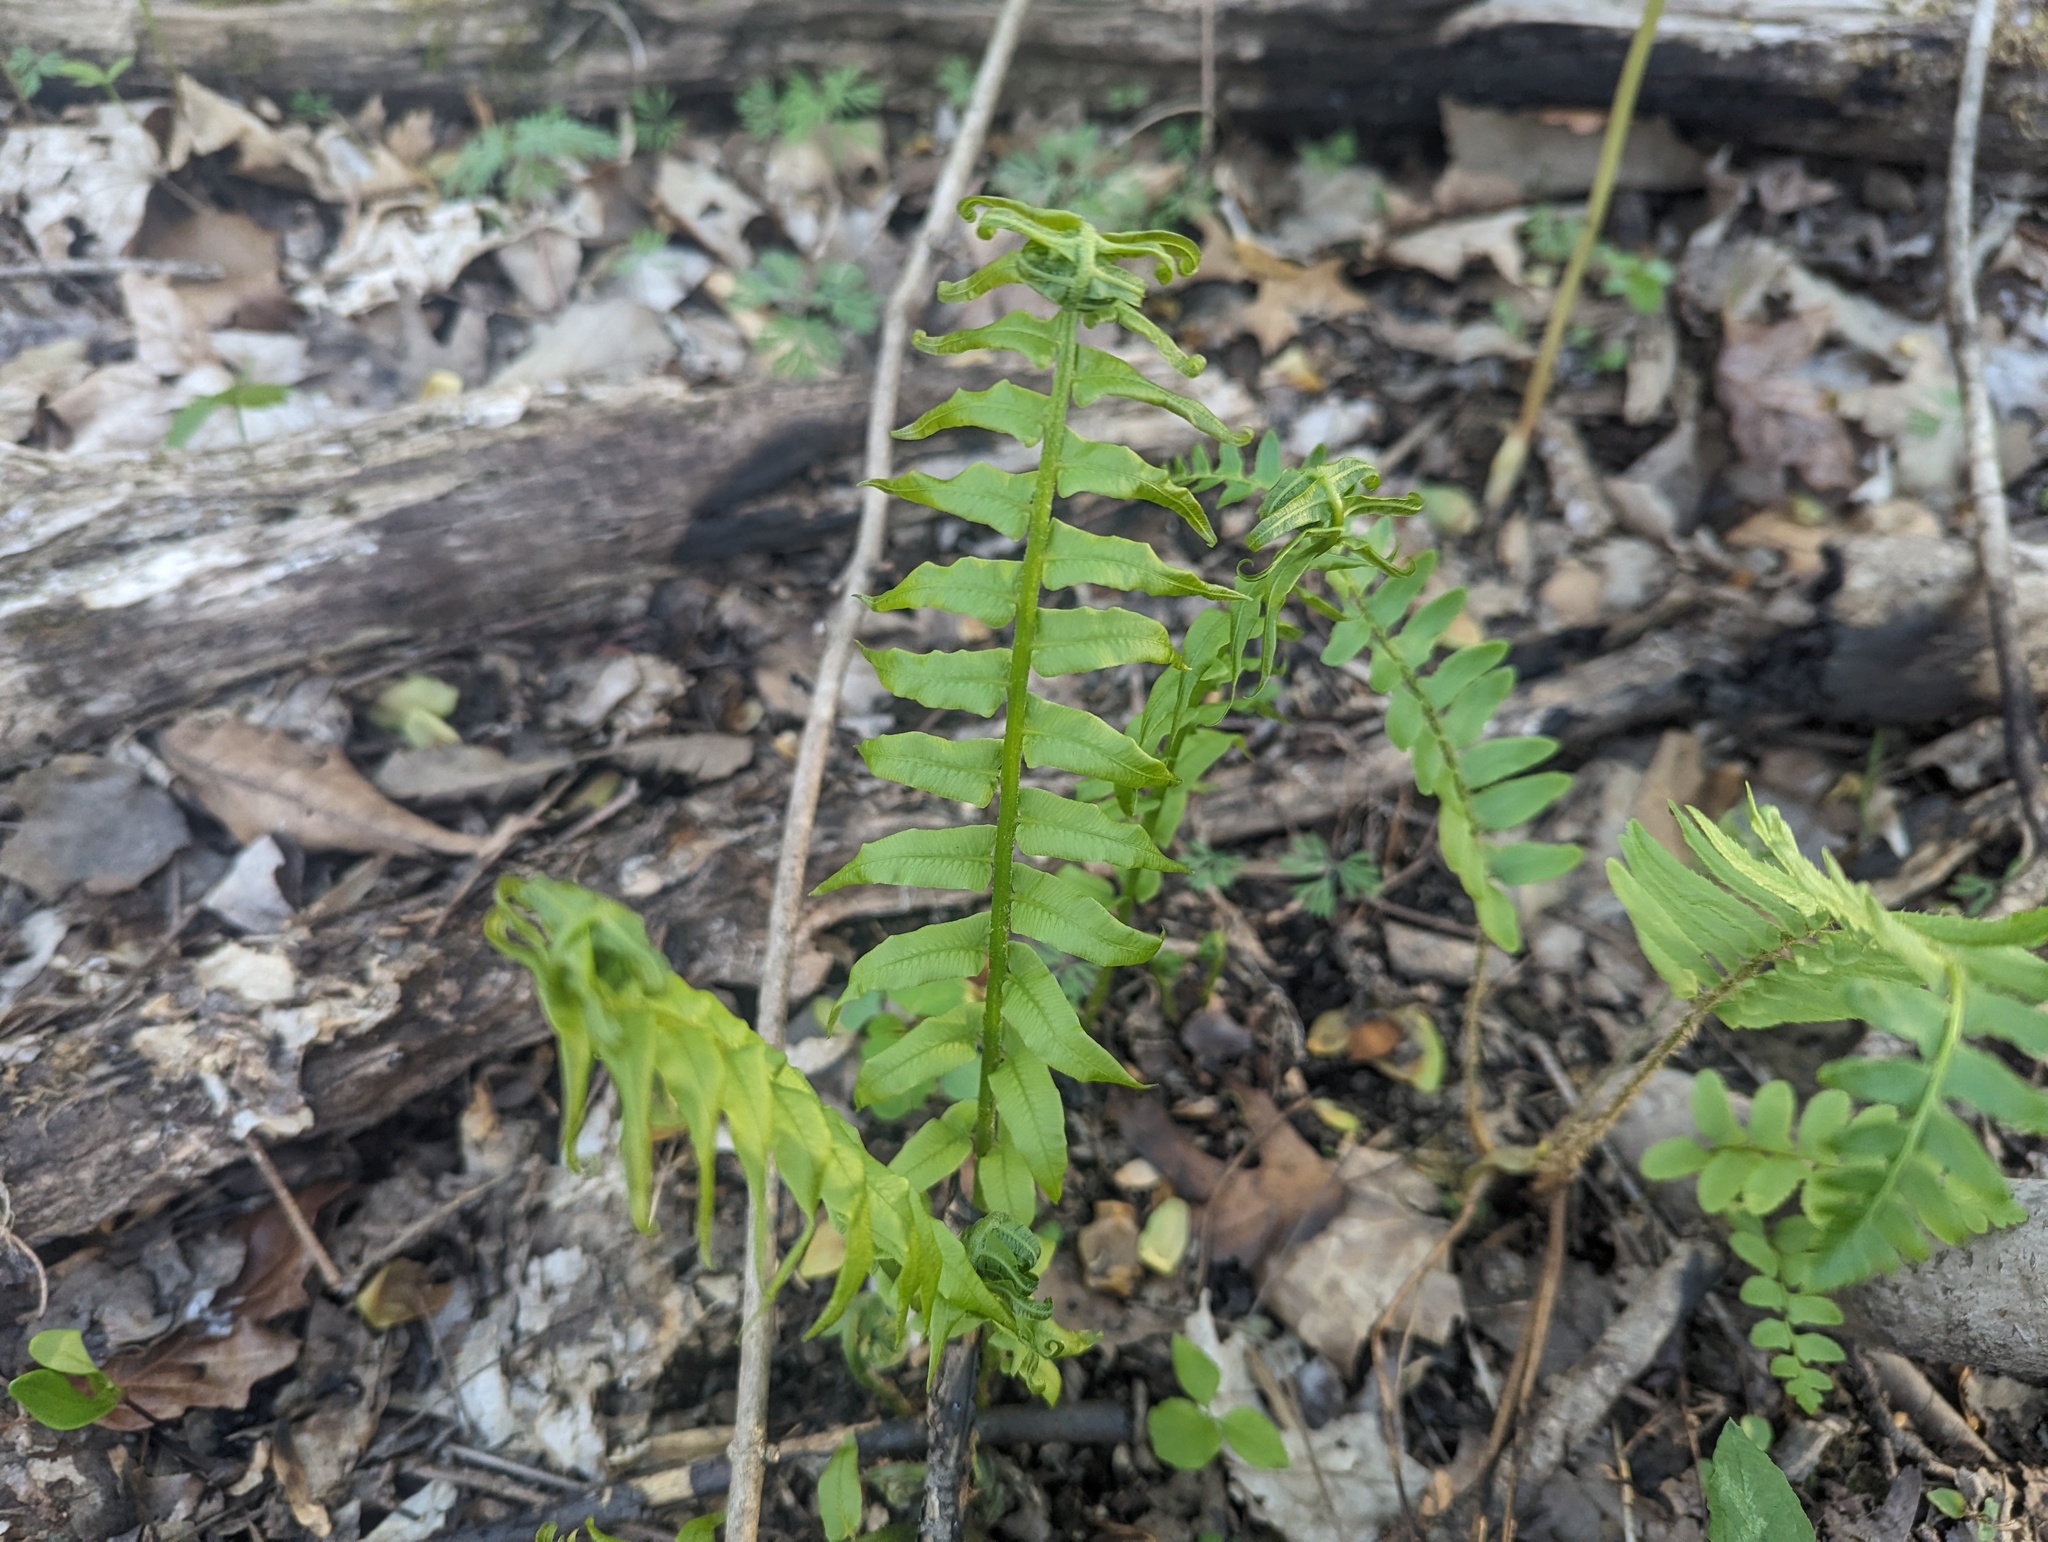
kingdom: Plantae
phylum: Tracheophyta
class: Polypodiopsida
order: Polypodiales
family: Diplaziopsidaceae
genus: Homalosorus
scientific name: Homalosorus pycnocarpos
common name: Glade fern
